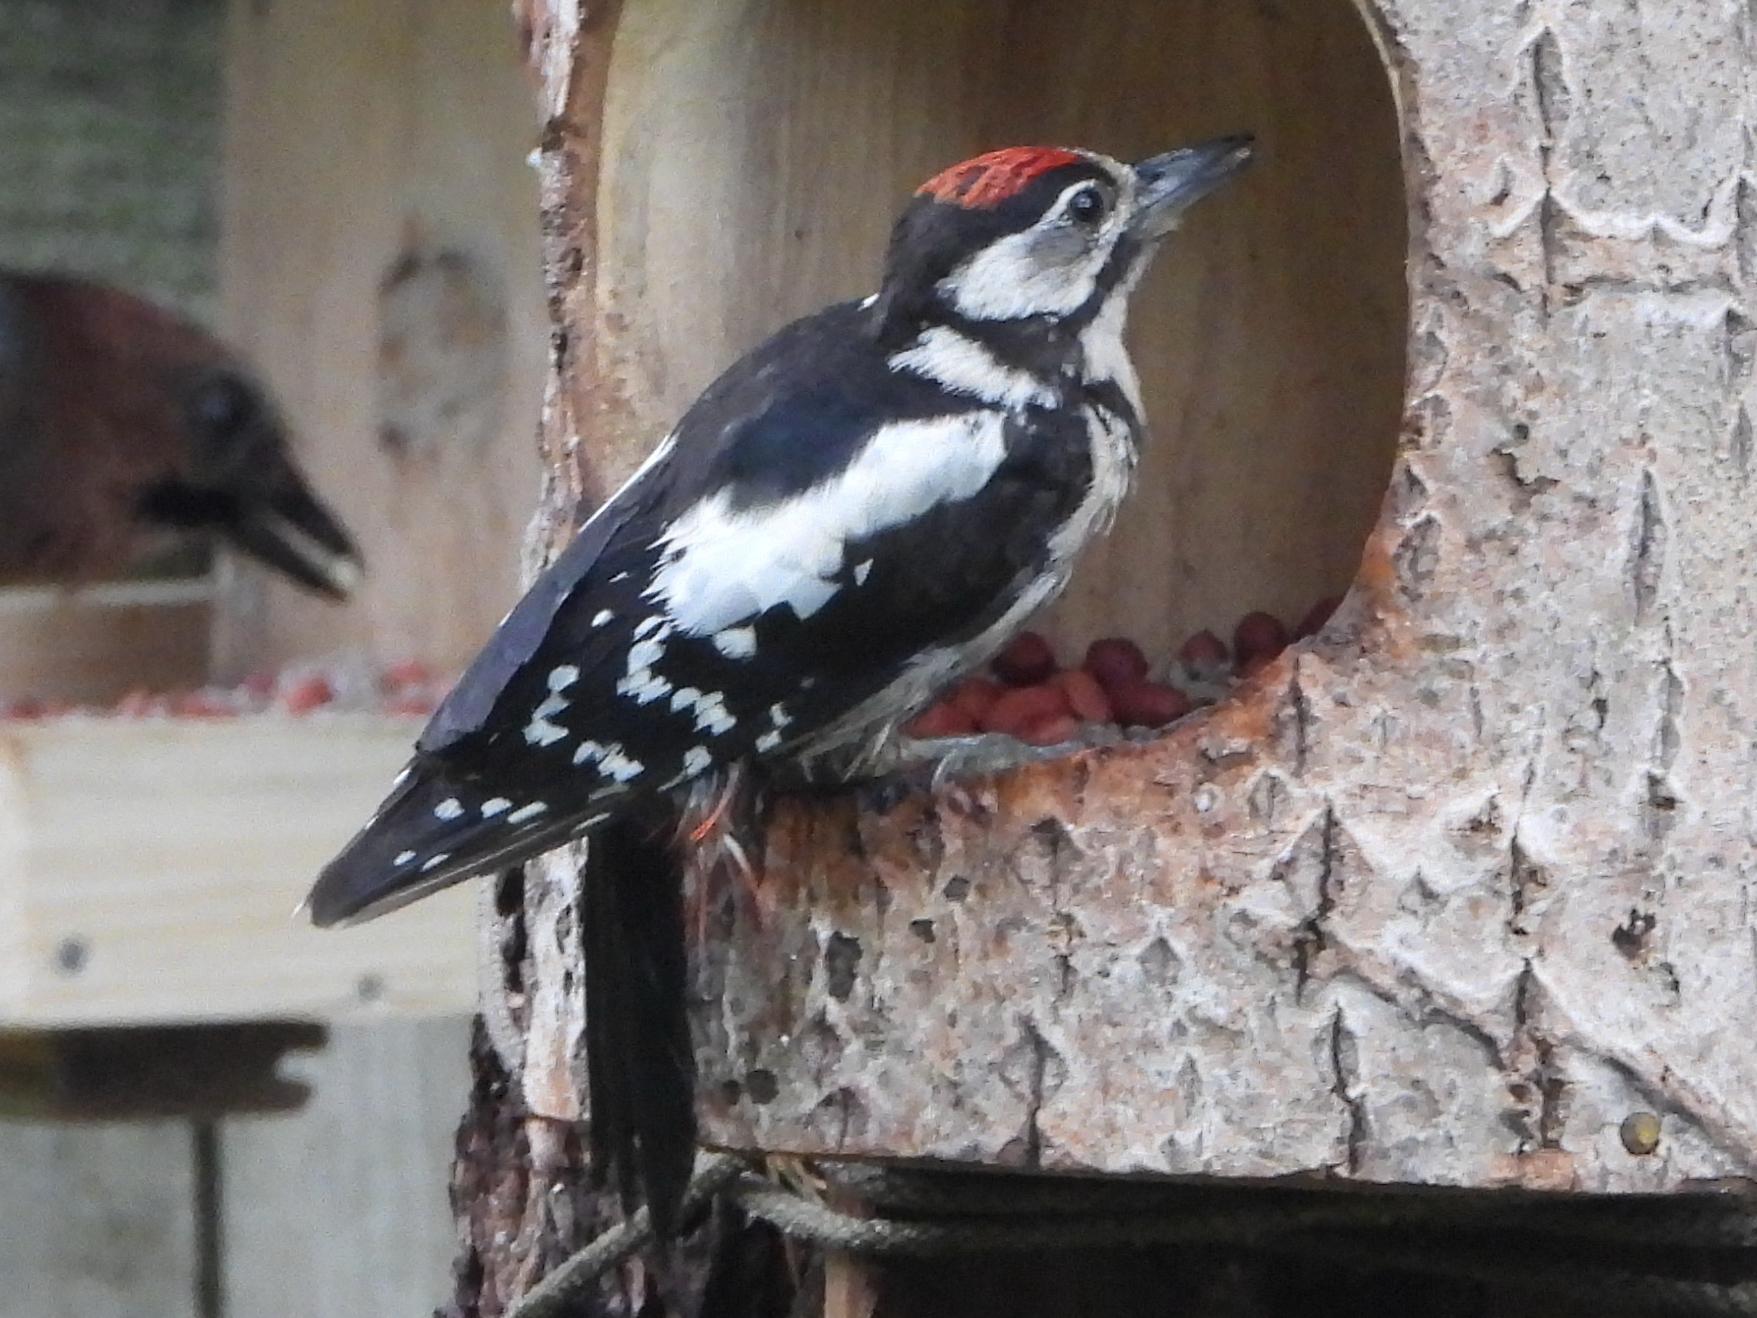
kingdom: Animalia
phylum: Chordata
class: Aves
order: Piciformes
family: Picidae
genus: Dendrocopos
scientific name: Dendrocopos major
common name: Great spotted woodpecker
